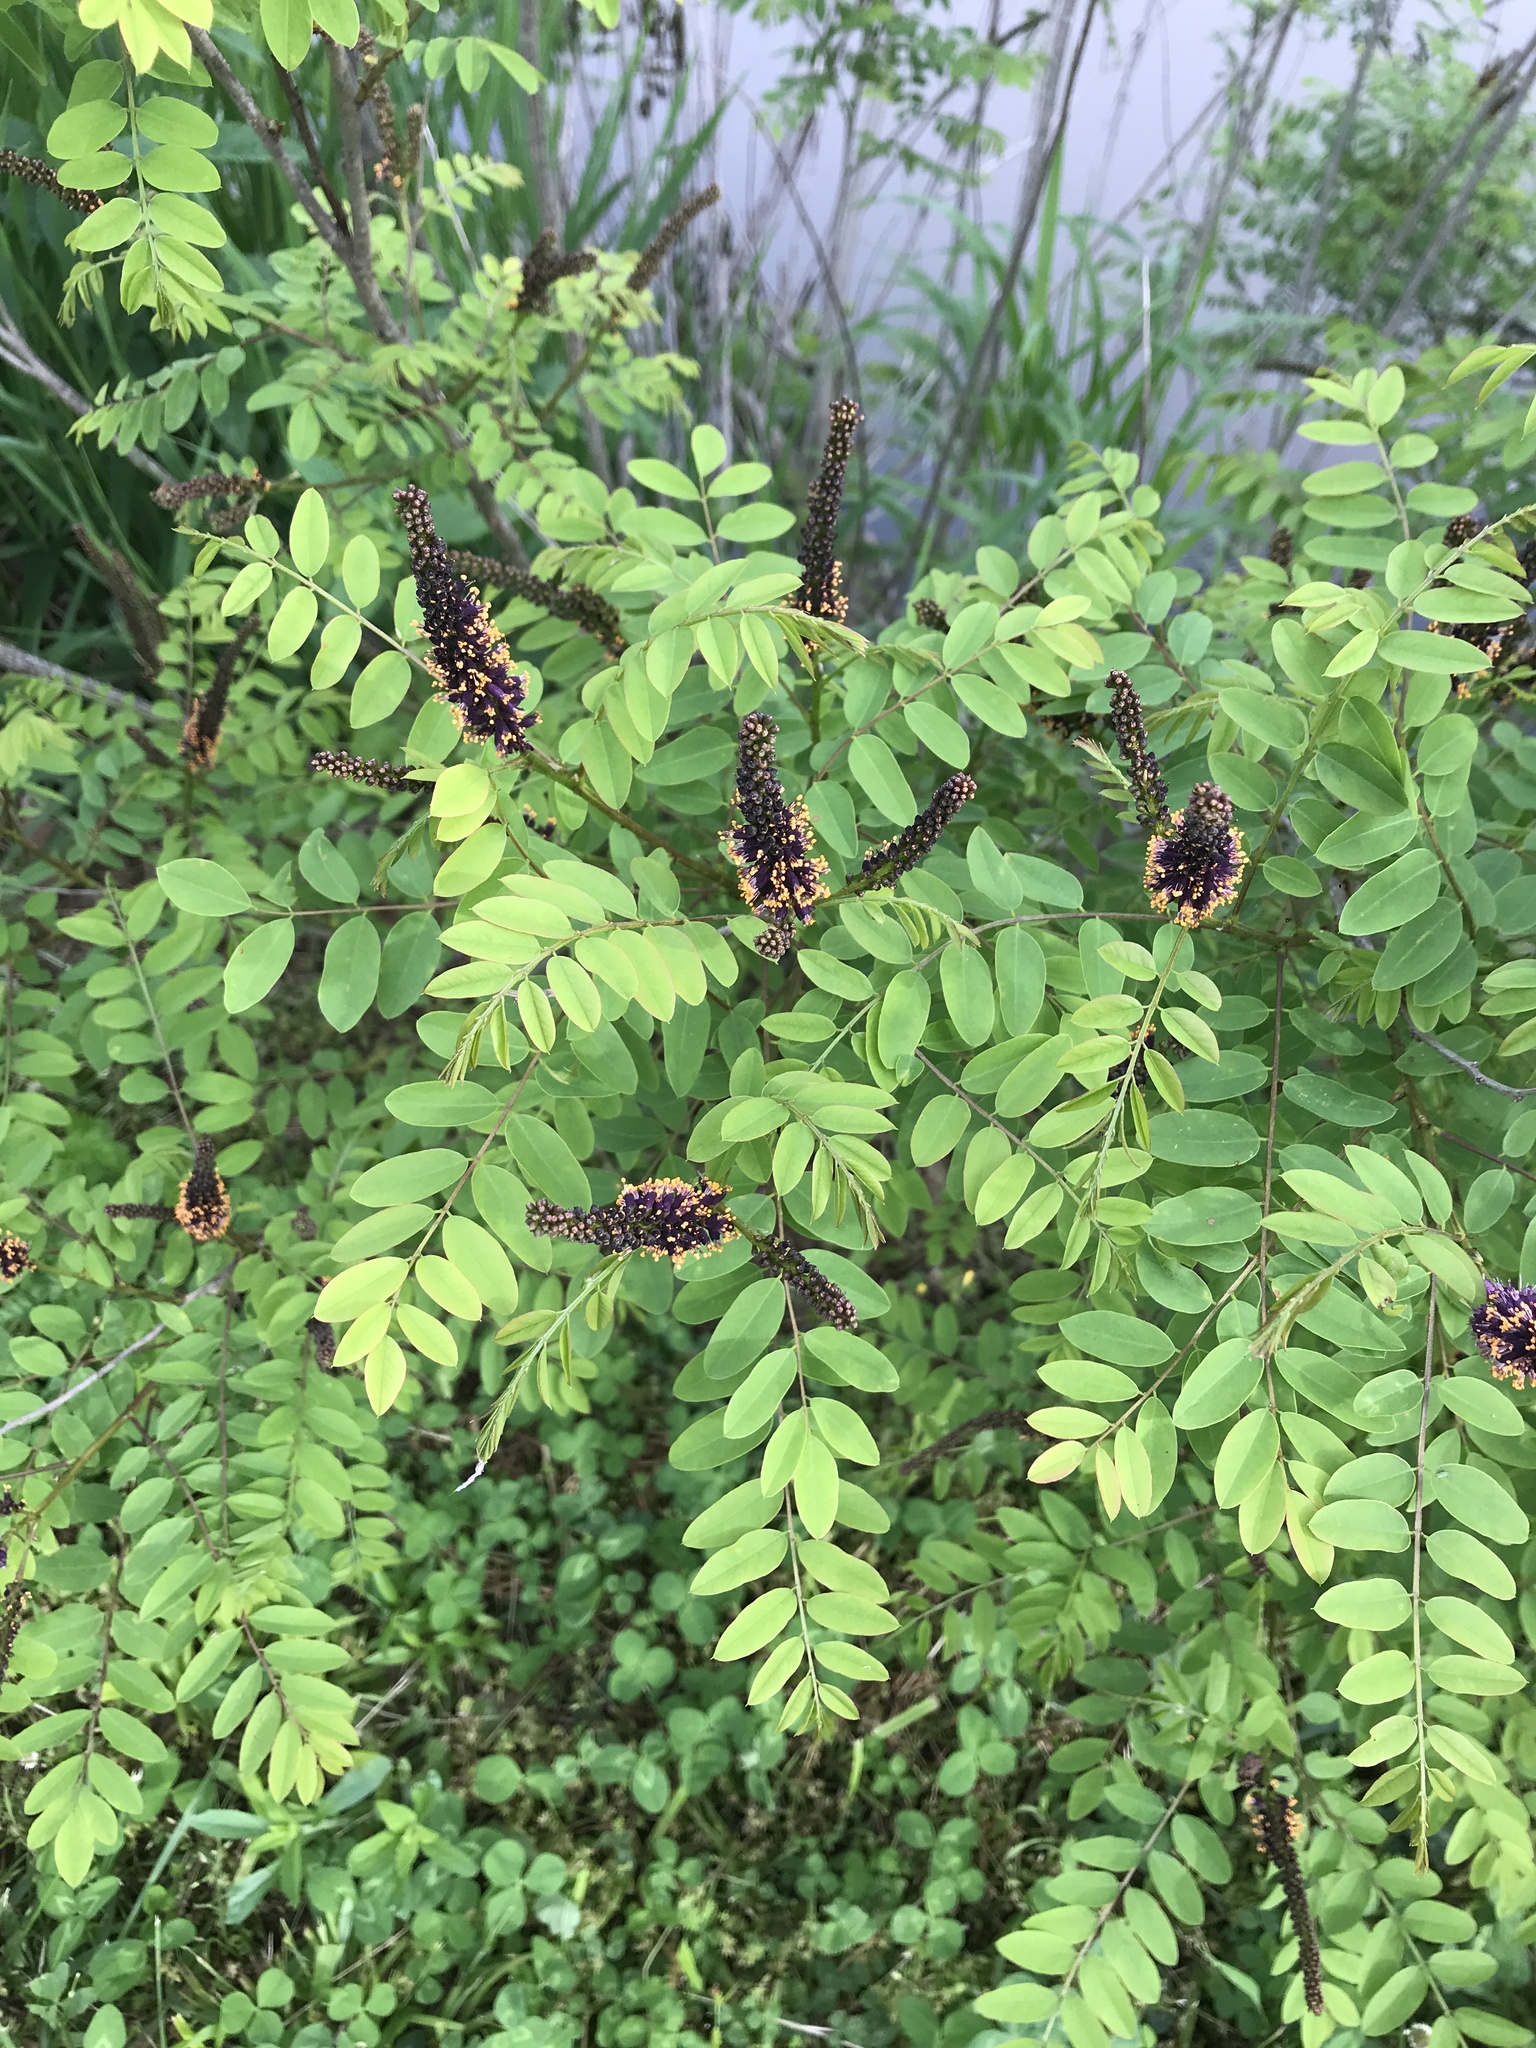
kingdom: Plantae
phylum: Tracheophyta
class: Magnoliopsida
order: Fabales
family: Fabaceae
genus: Amorpha
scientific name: Amorpha fruticosa
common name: False indigo
